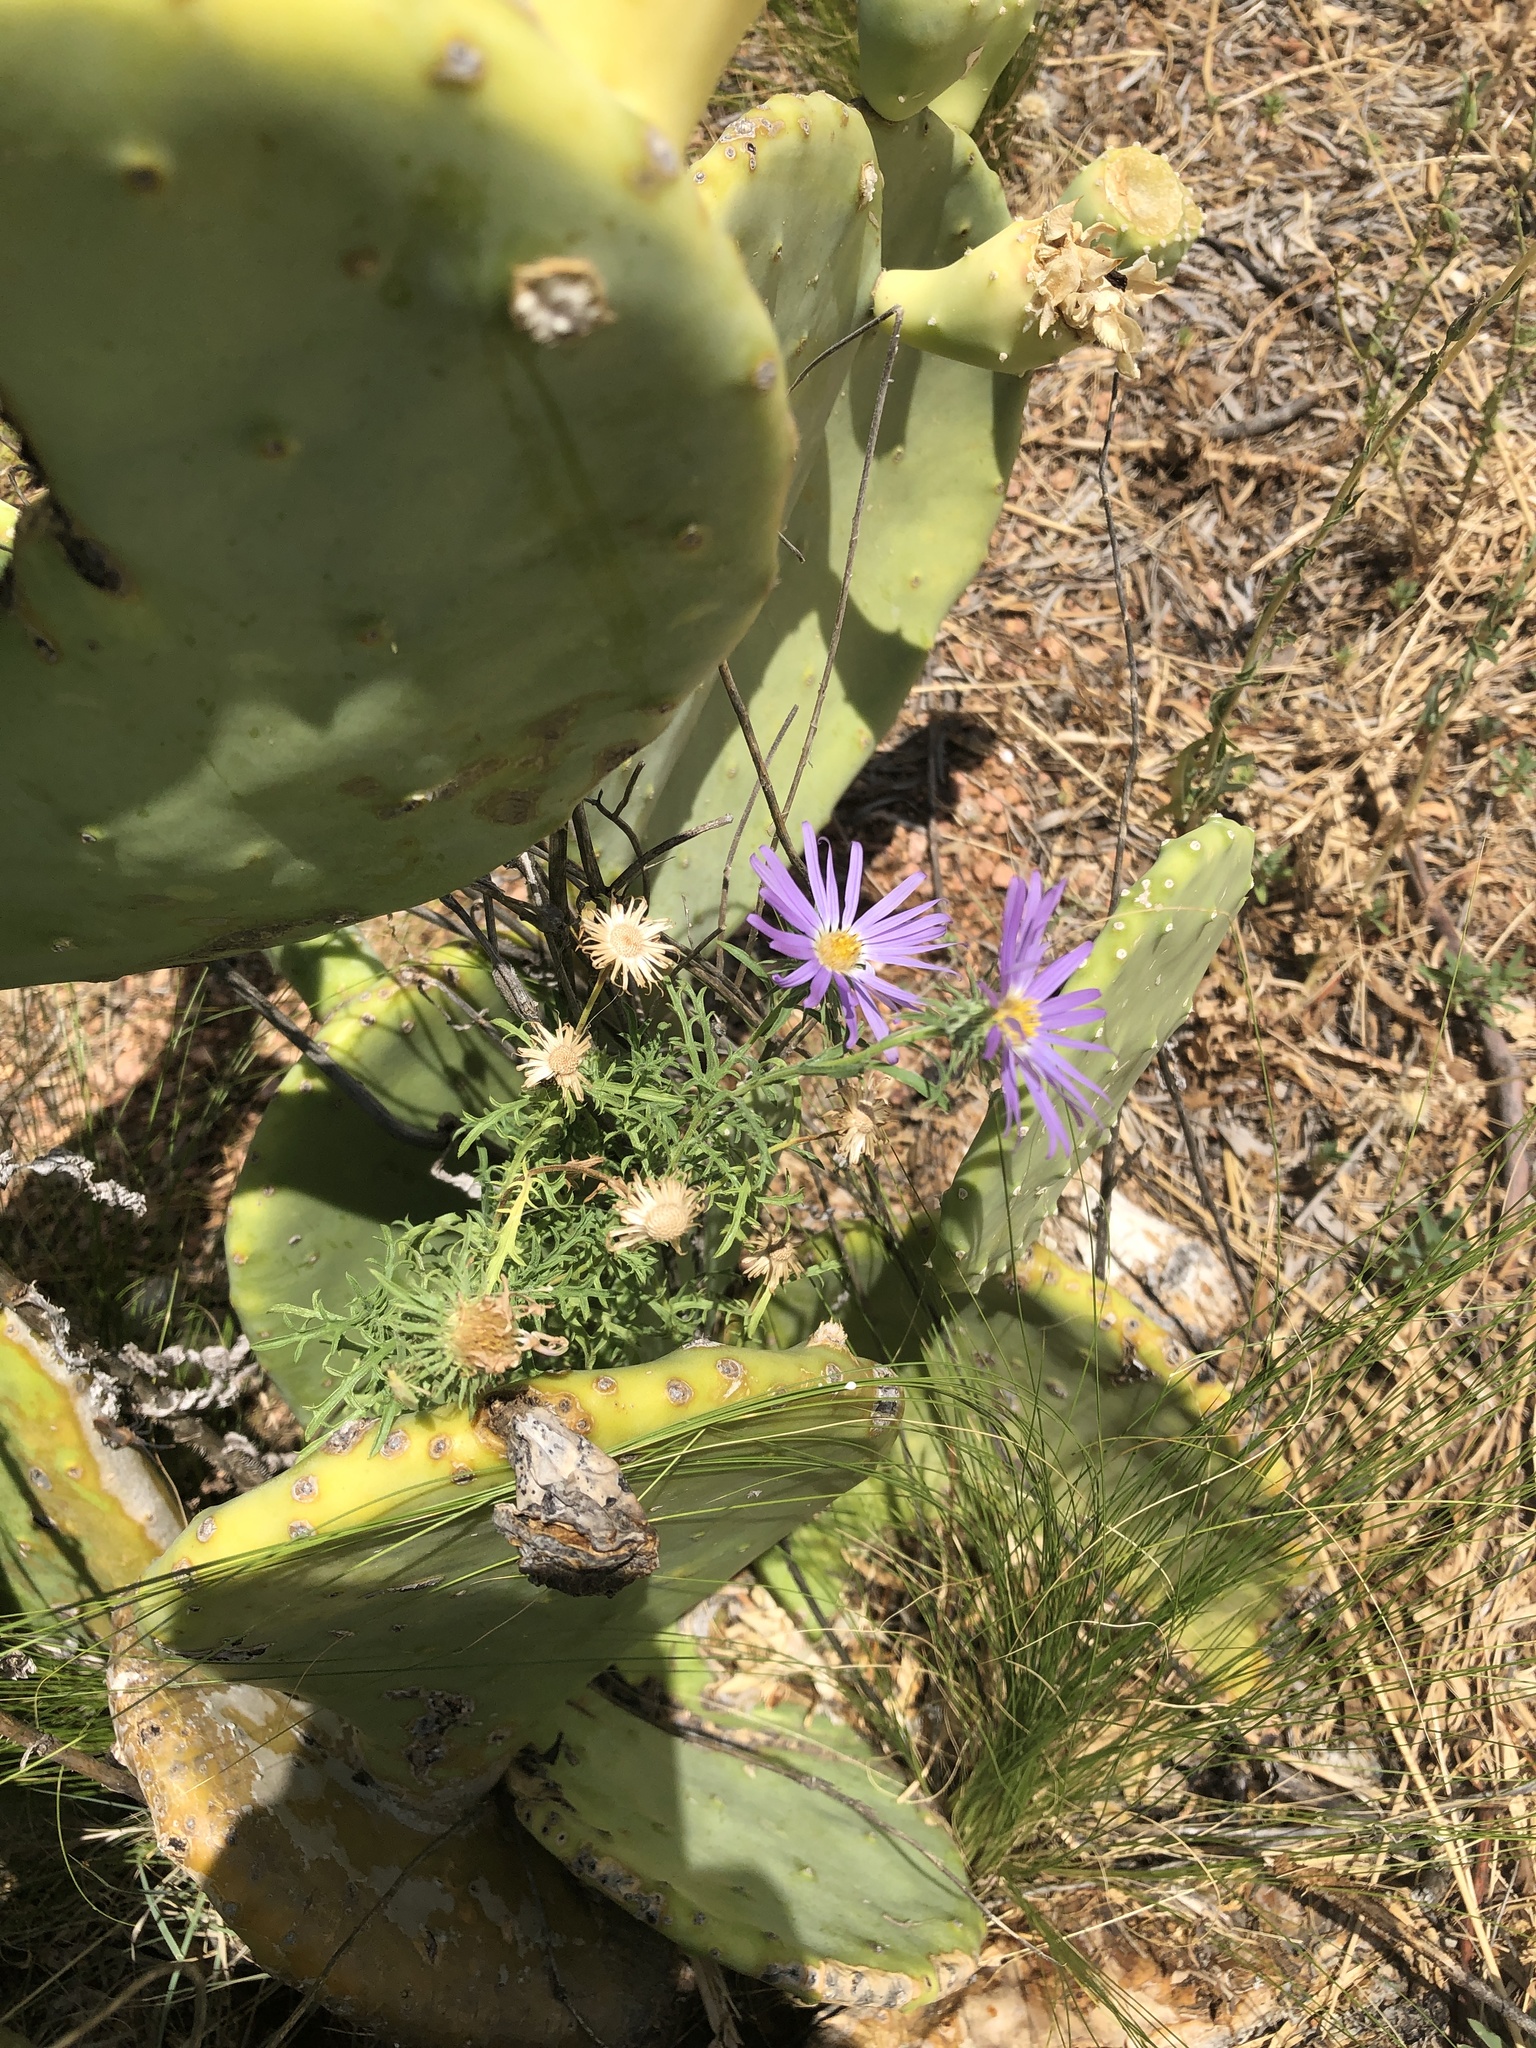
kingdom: Plantae
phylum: Tracheophyta
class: Magnoliopsida
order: Asterales
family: Asteraceae
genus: Machaeranthera
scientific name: Machaeranthera tanacetifolia
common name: Tansy-aster
